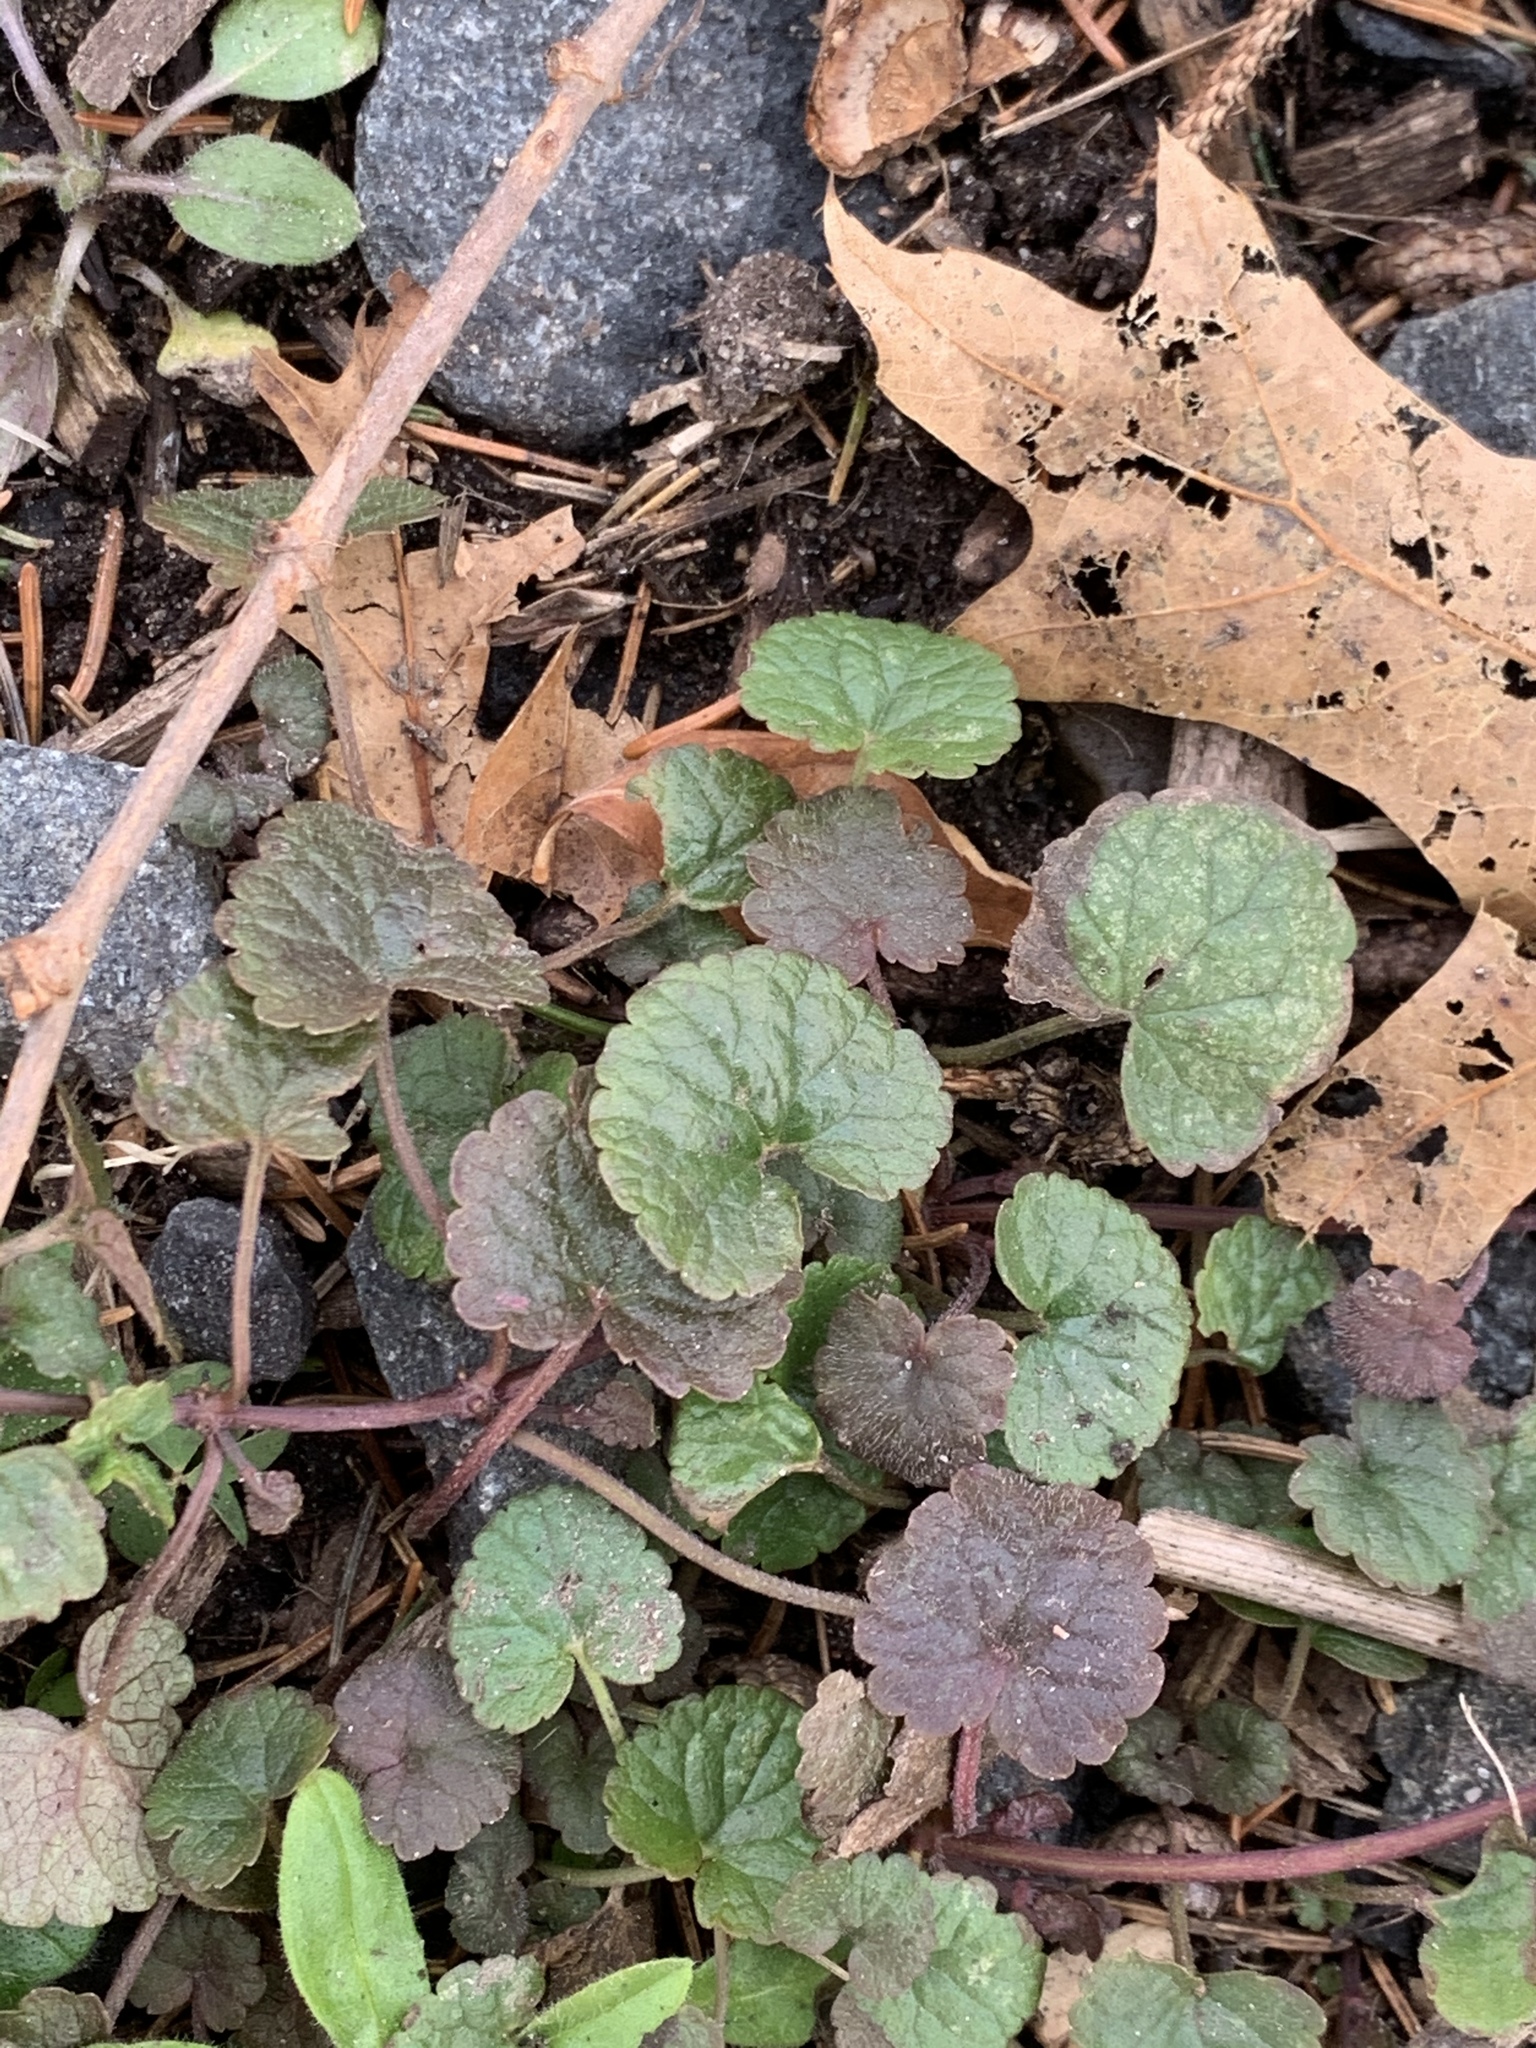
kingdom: Plantae
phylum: Tracheophyta
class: Magnoliopsida
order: Lamiales
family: Lamiaceae
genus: Glechoma
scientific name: Glechoma hederacea
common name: Ground ivy
